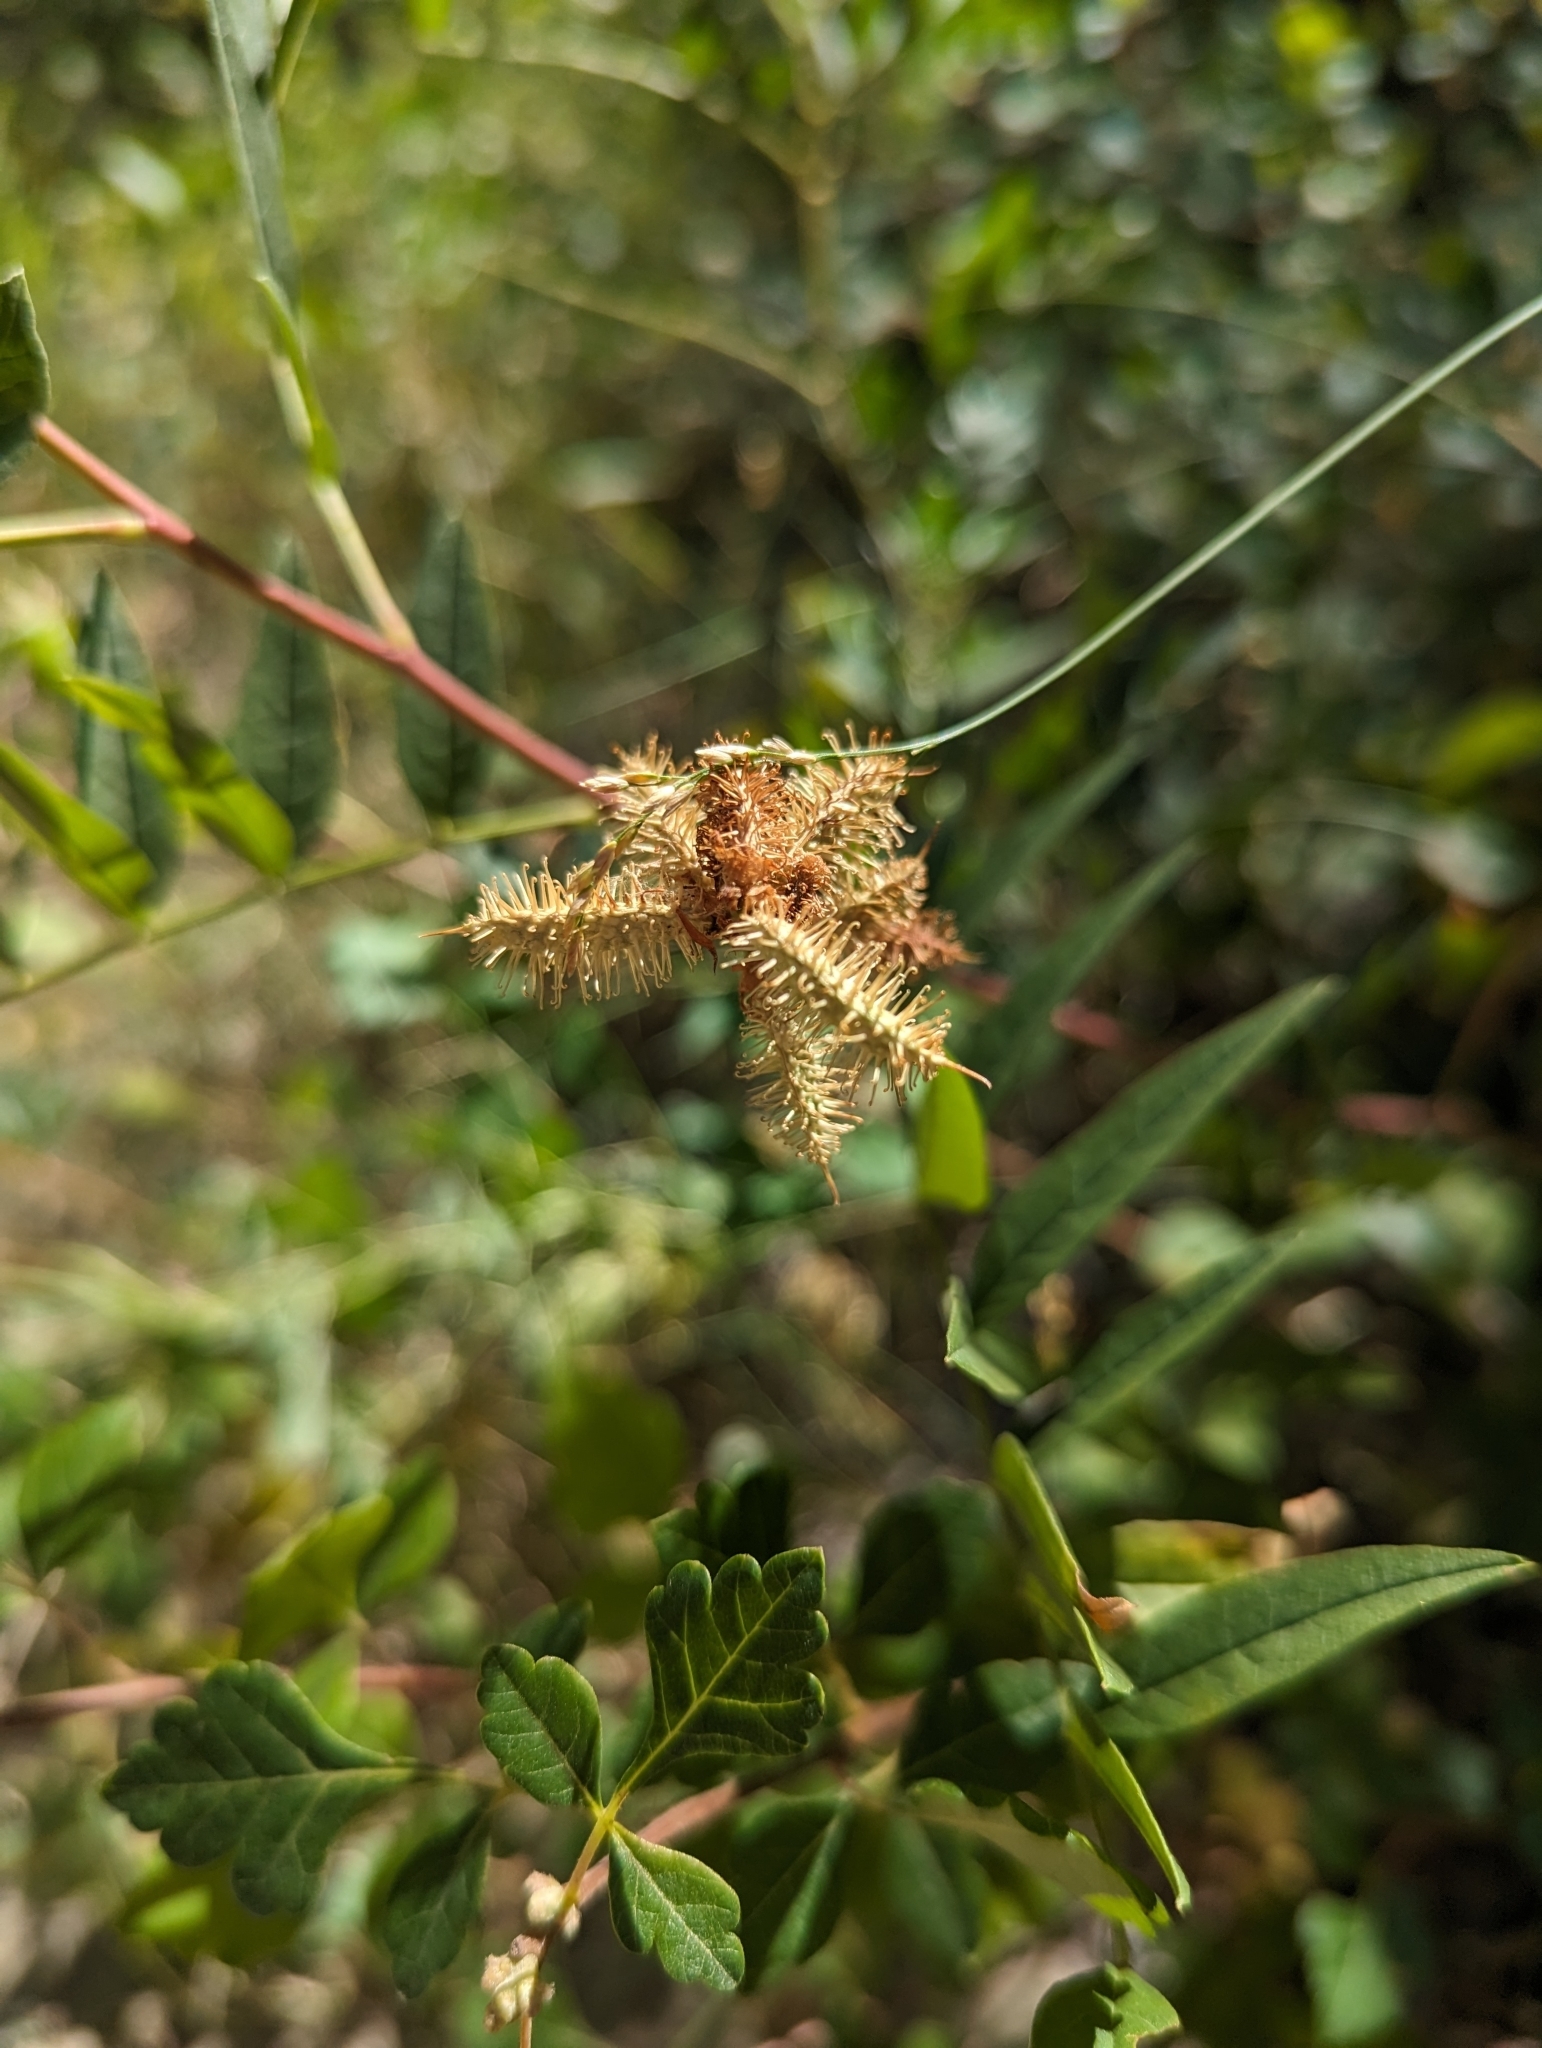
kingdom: Plantae
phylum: Tracheophyta
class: Magnoliopsida
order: Fabales
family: Fabaceae
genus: Glycyrrhiza
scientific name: Glycyrrhiza lepidota
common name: American liquorice
